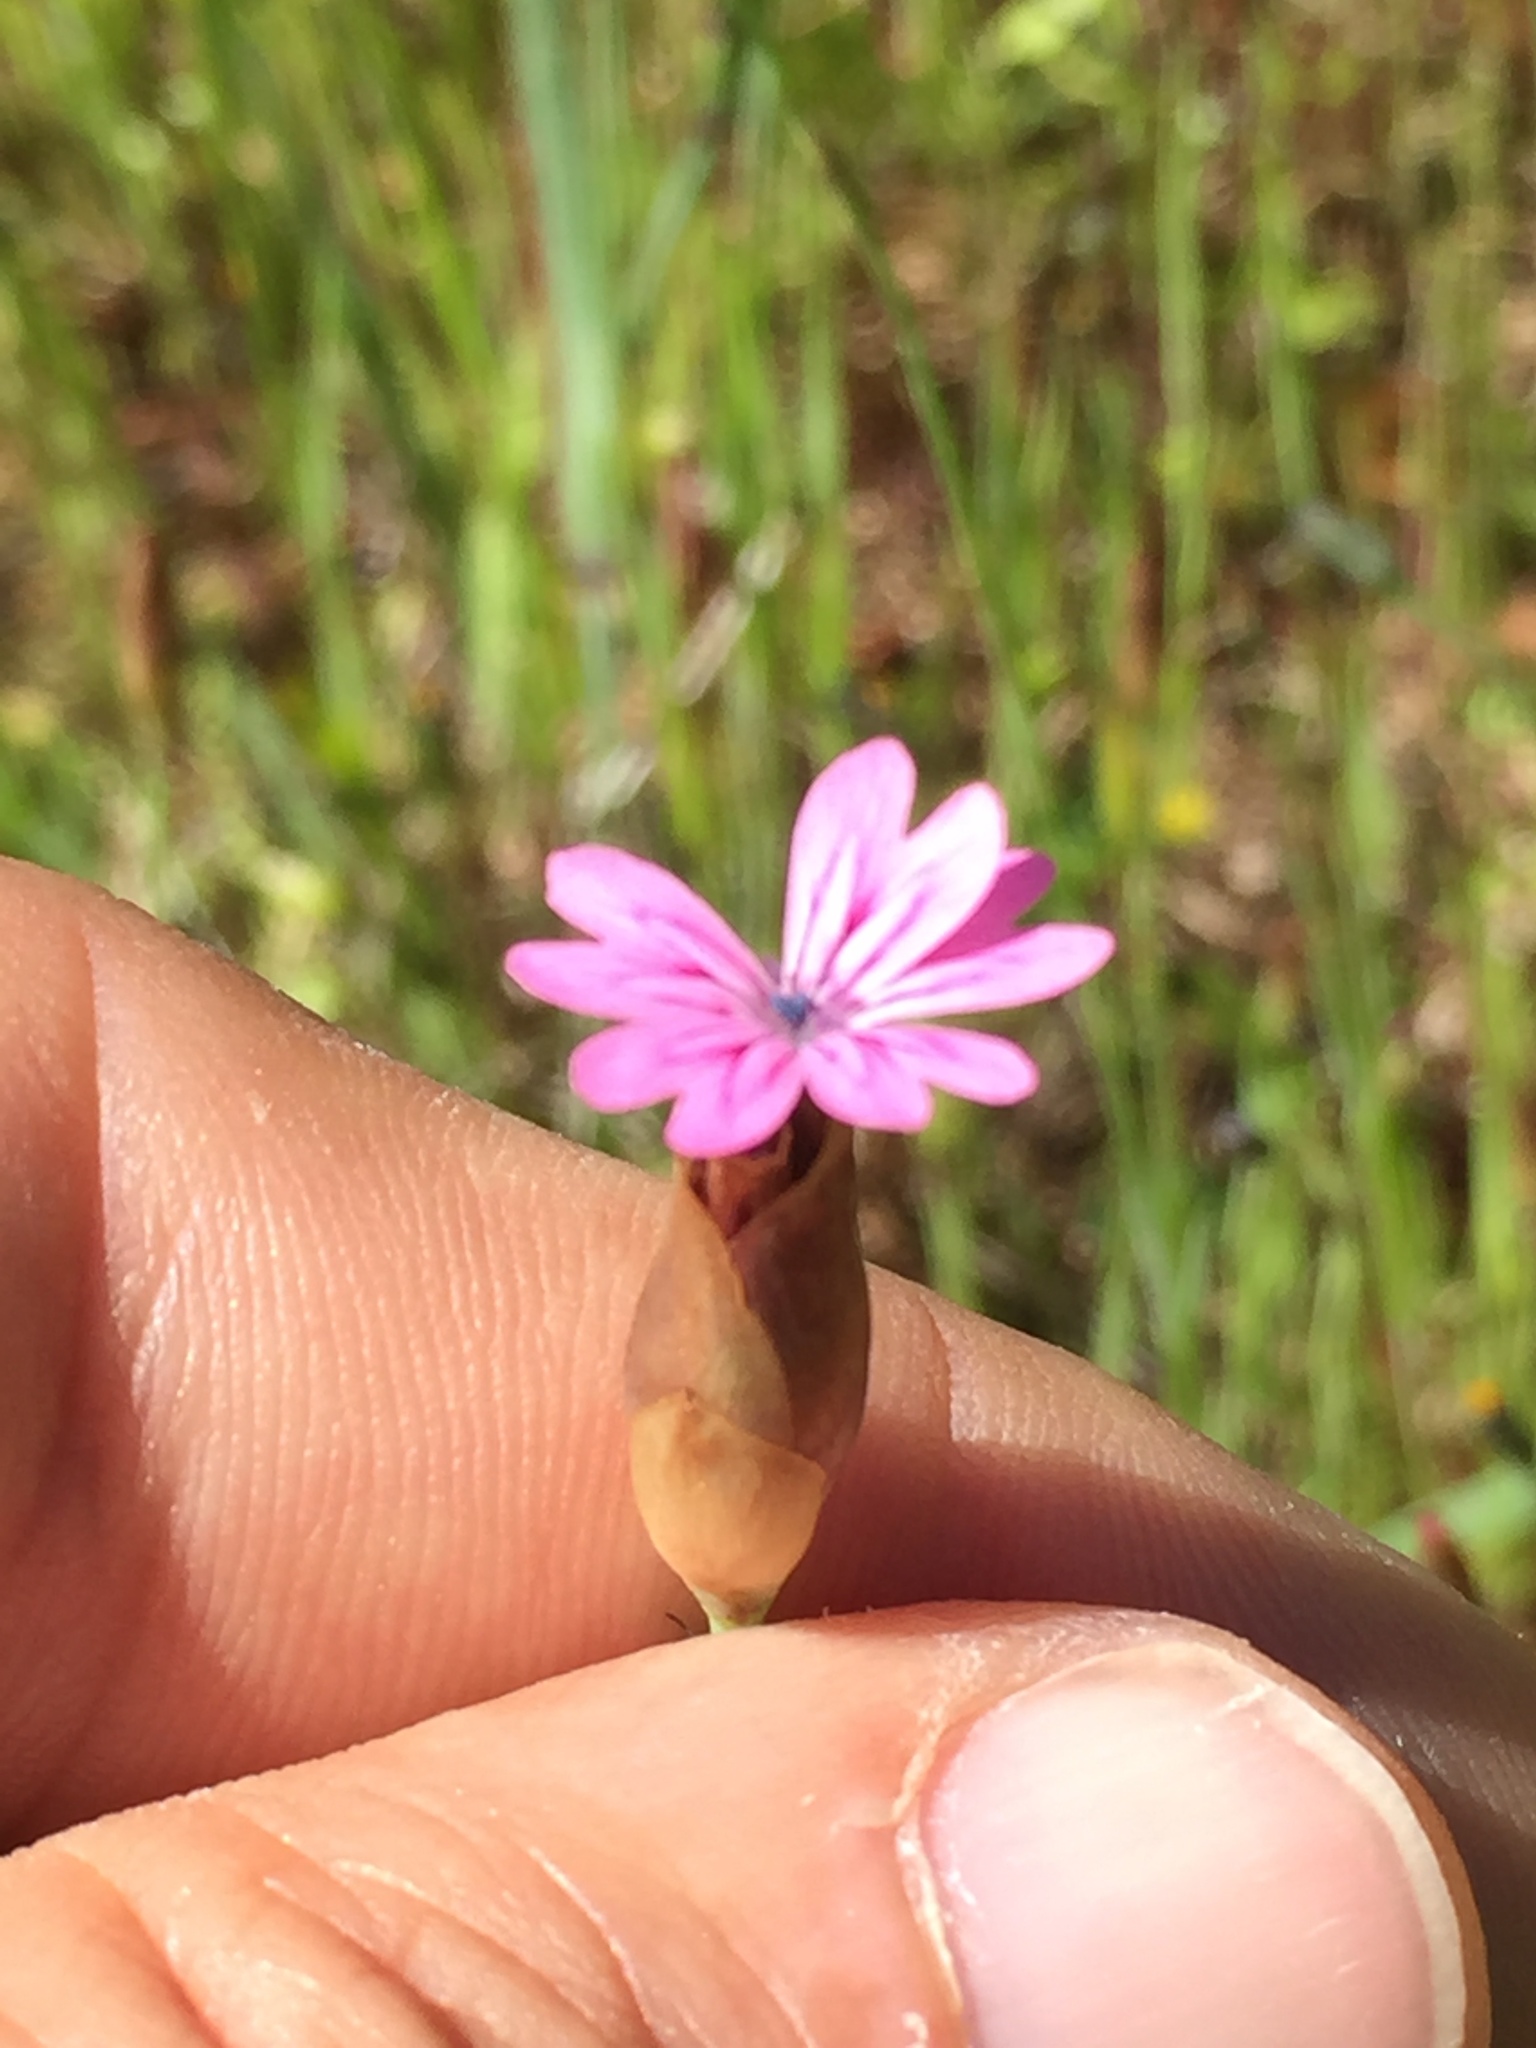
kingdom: Plantae
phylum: Tracheophyta
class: Magnoliopsida
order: Caryophyllales
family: Caryophyllaceae
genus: Petrorhagia
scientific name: Petrorhagia dubia
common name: Hairypink
